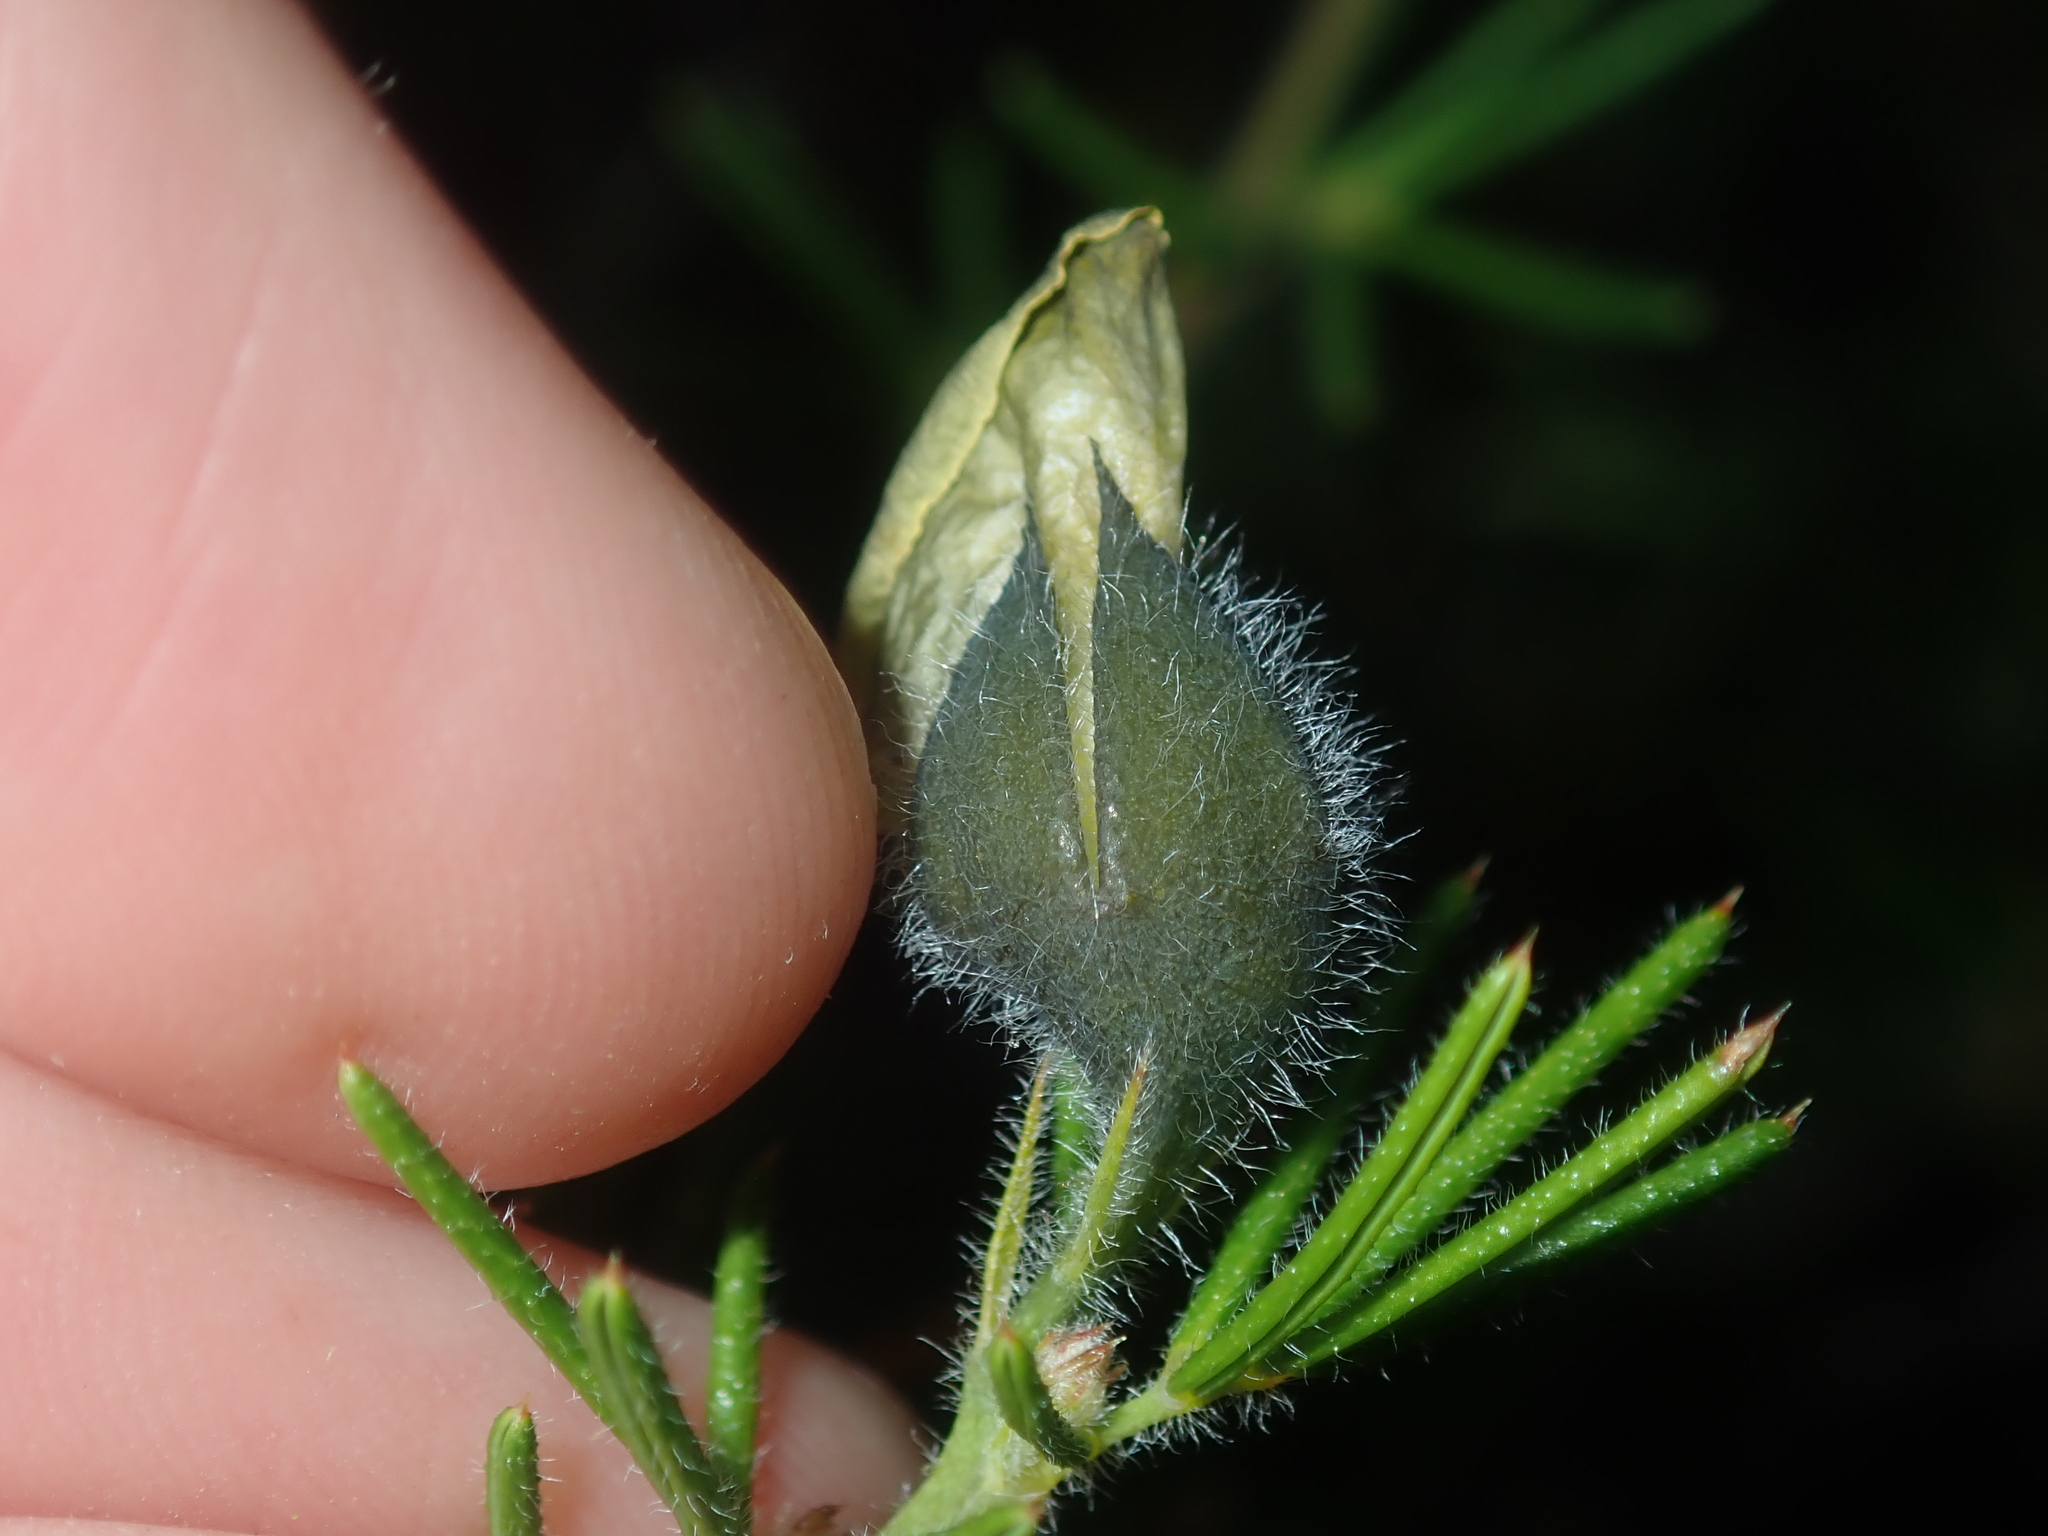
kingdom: Plantae
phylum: Tracheophyta
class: Magnoliopsida
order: Fabales
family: Fabaceae
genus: Gompholobium
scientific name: Gompholobium tomentosum
